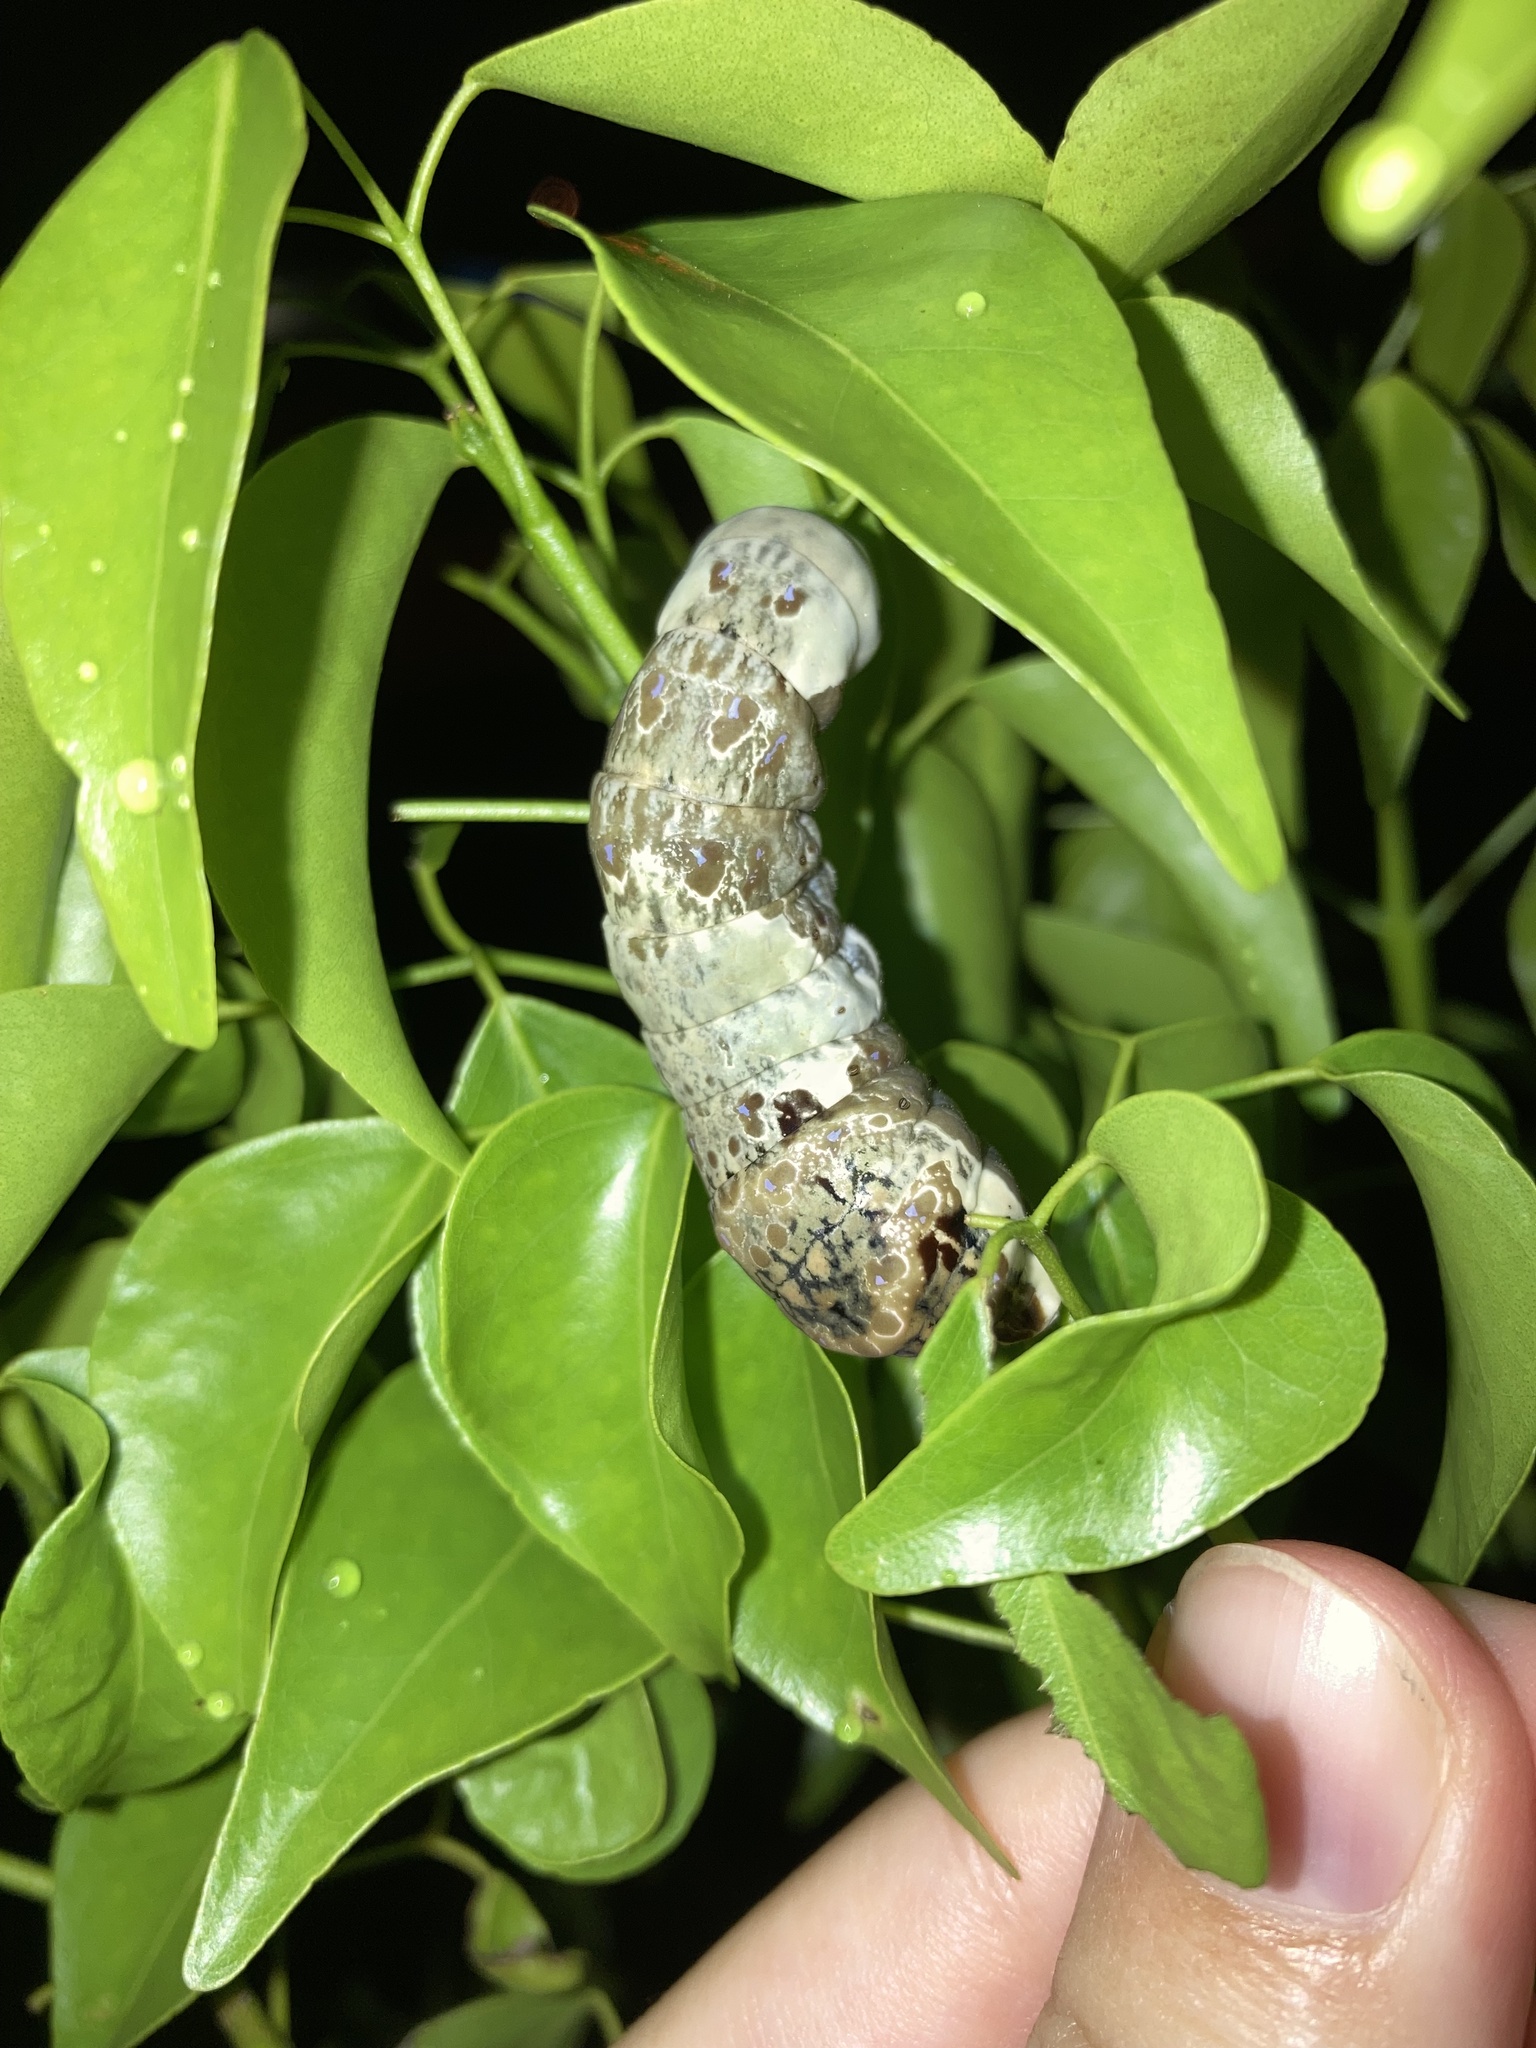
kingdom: Animalia
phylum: Arthropoda
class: Insecta
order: Lepidoptera
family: Papilionidae
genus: Papilio
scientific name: Papilio cresphontes
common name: Giant swallowtail
